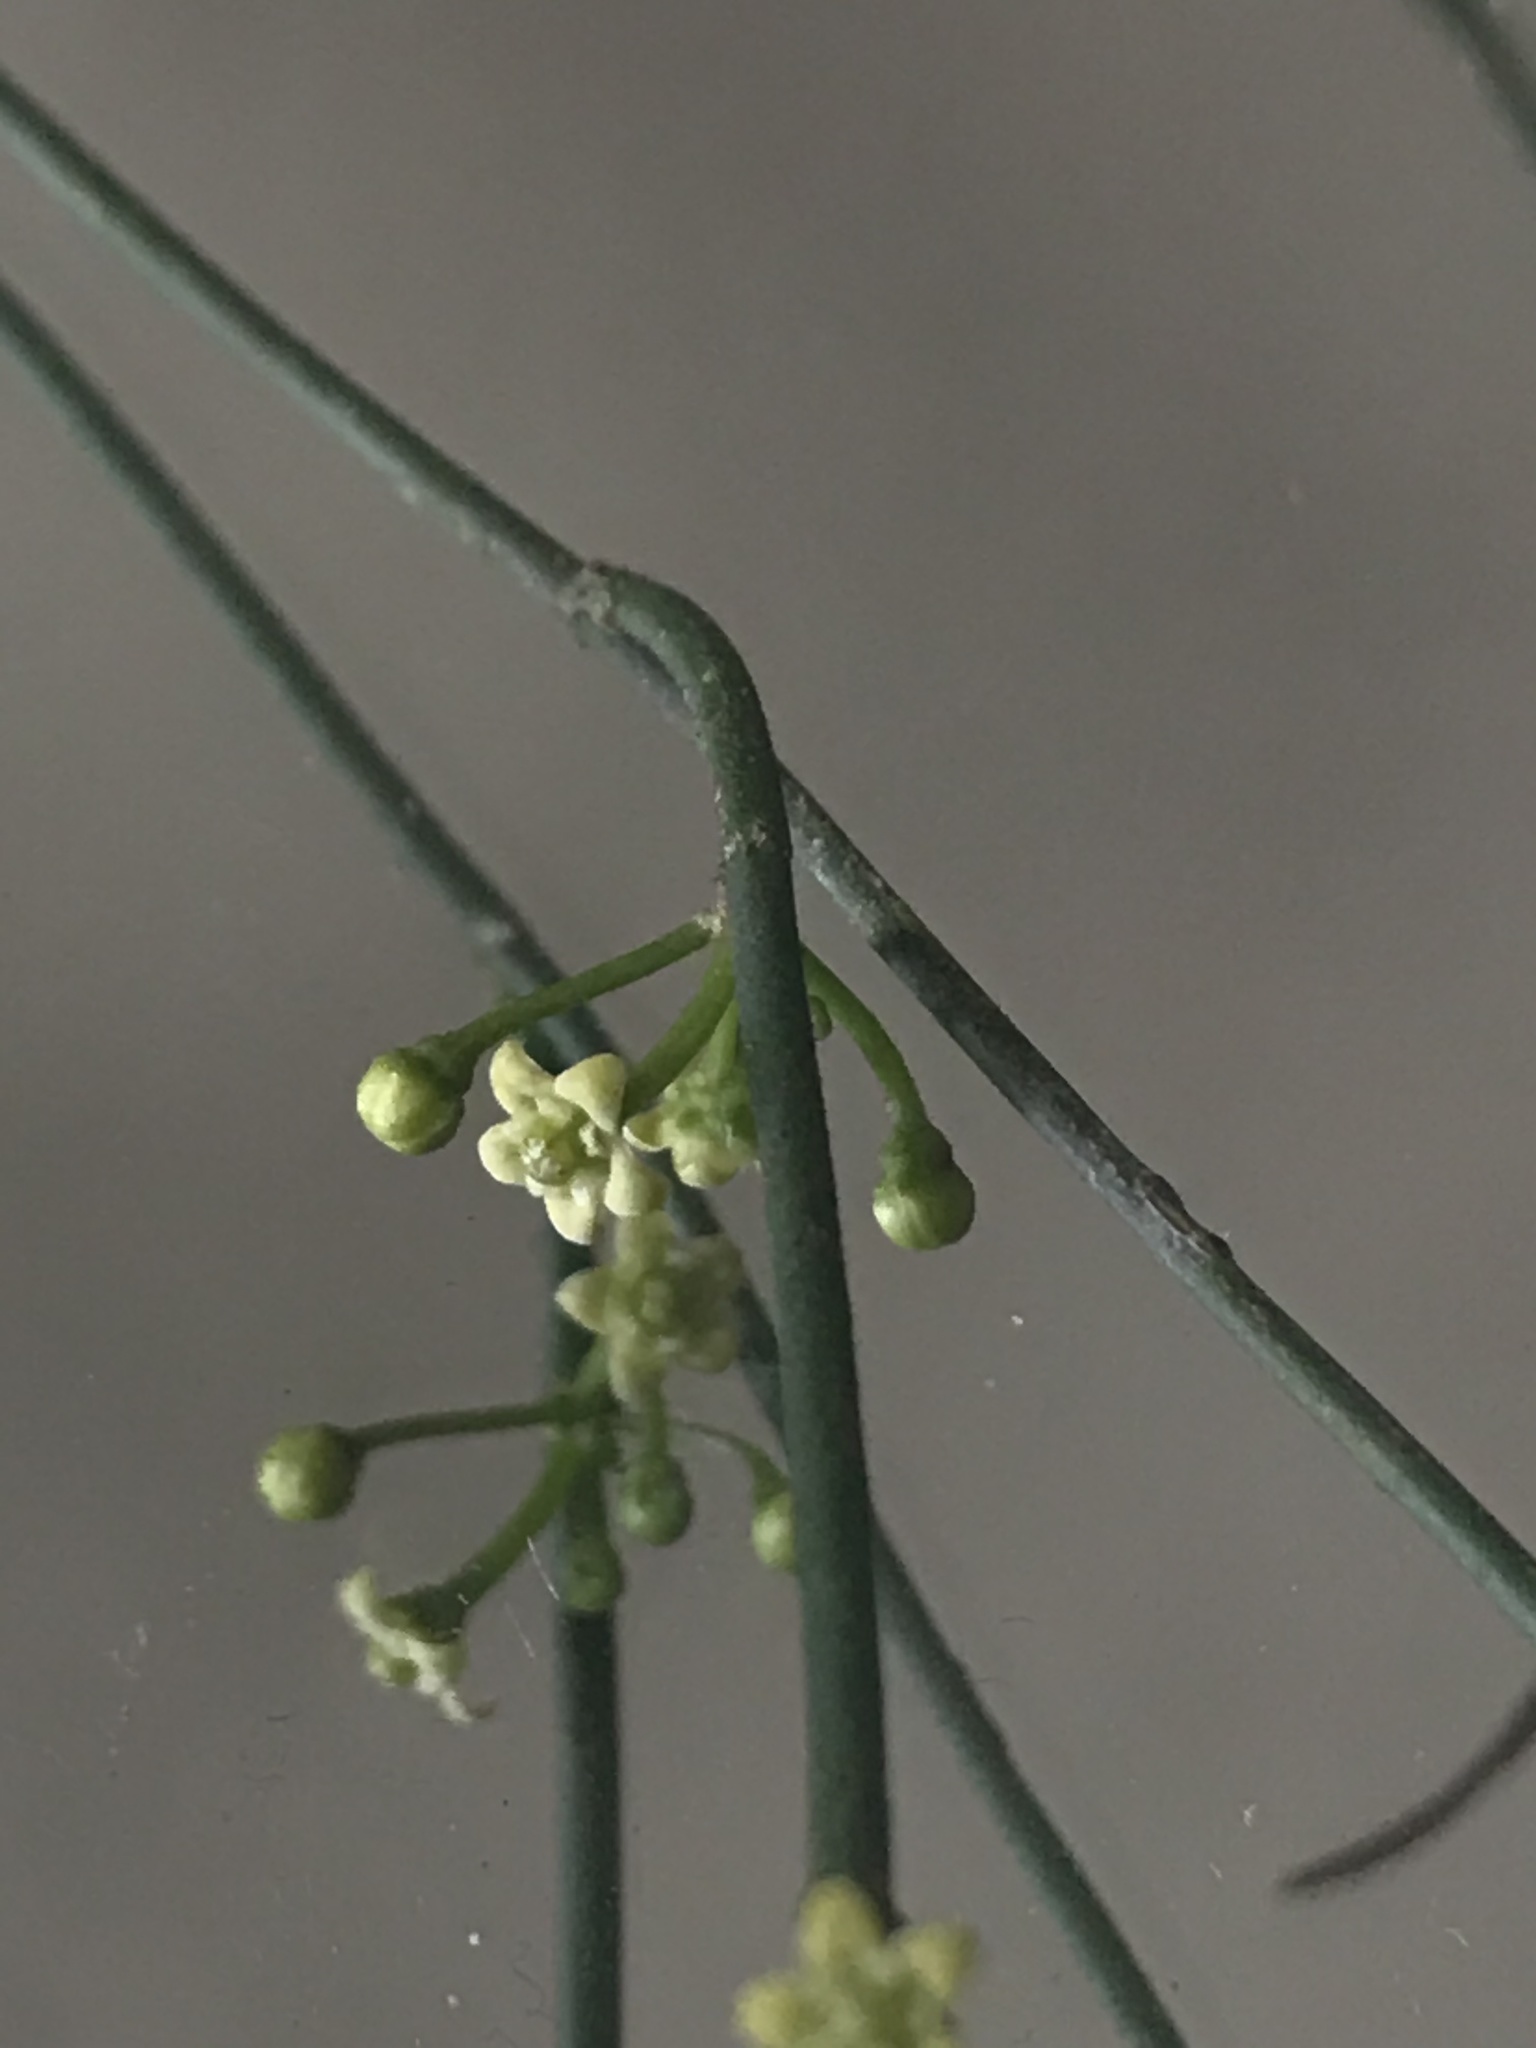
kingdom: Plantae
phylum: Tracheophyta
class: Magnoliopsida
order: Gentianales
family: Apocynaceae
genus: Orthosia
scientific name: Orthosia stenophylla
